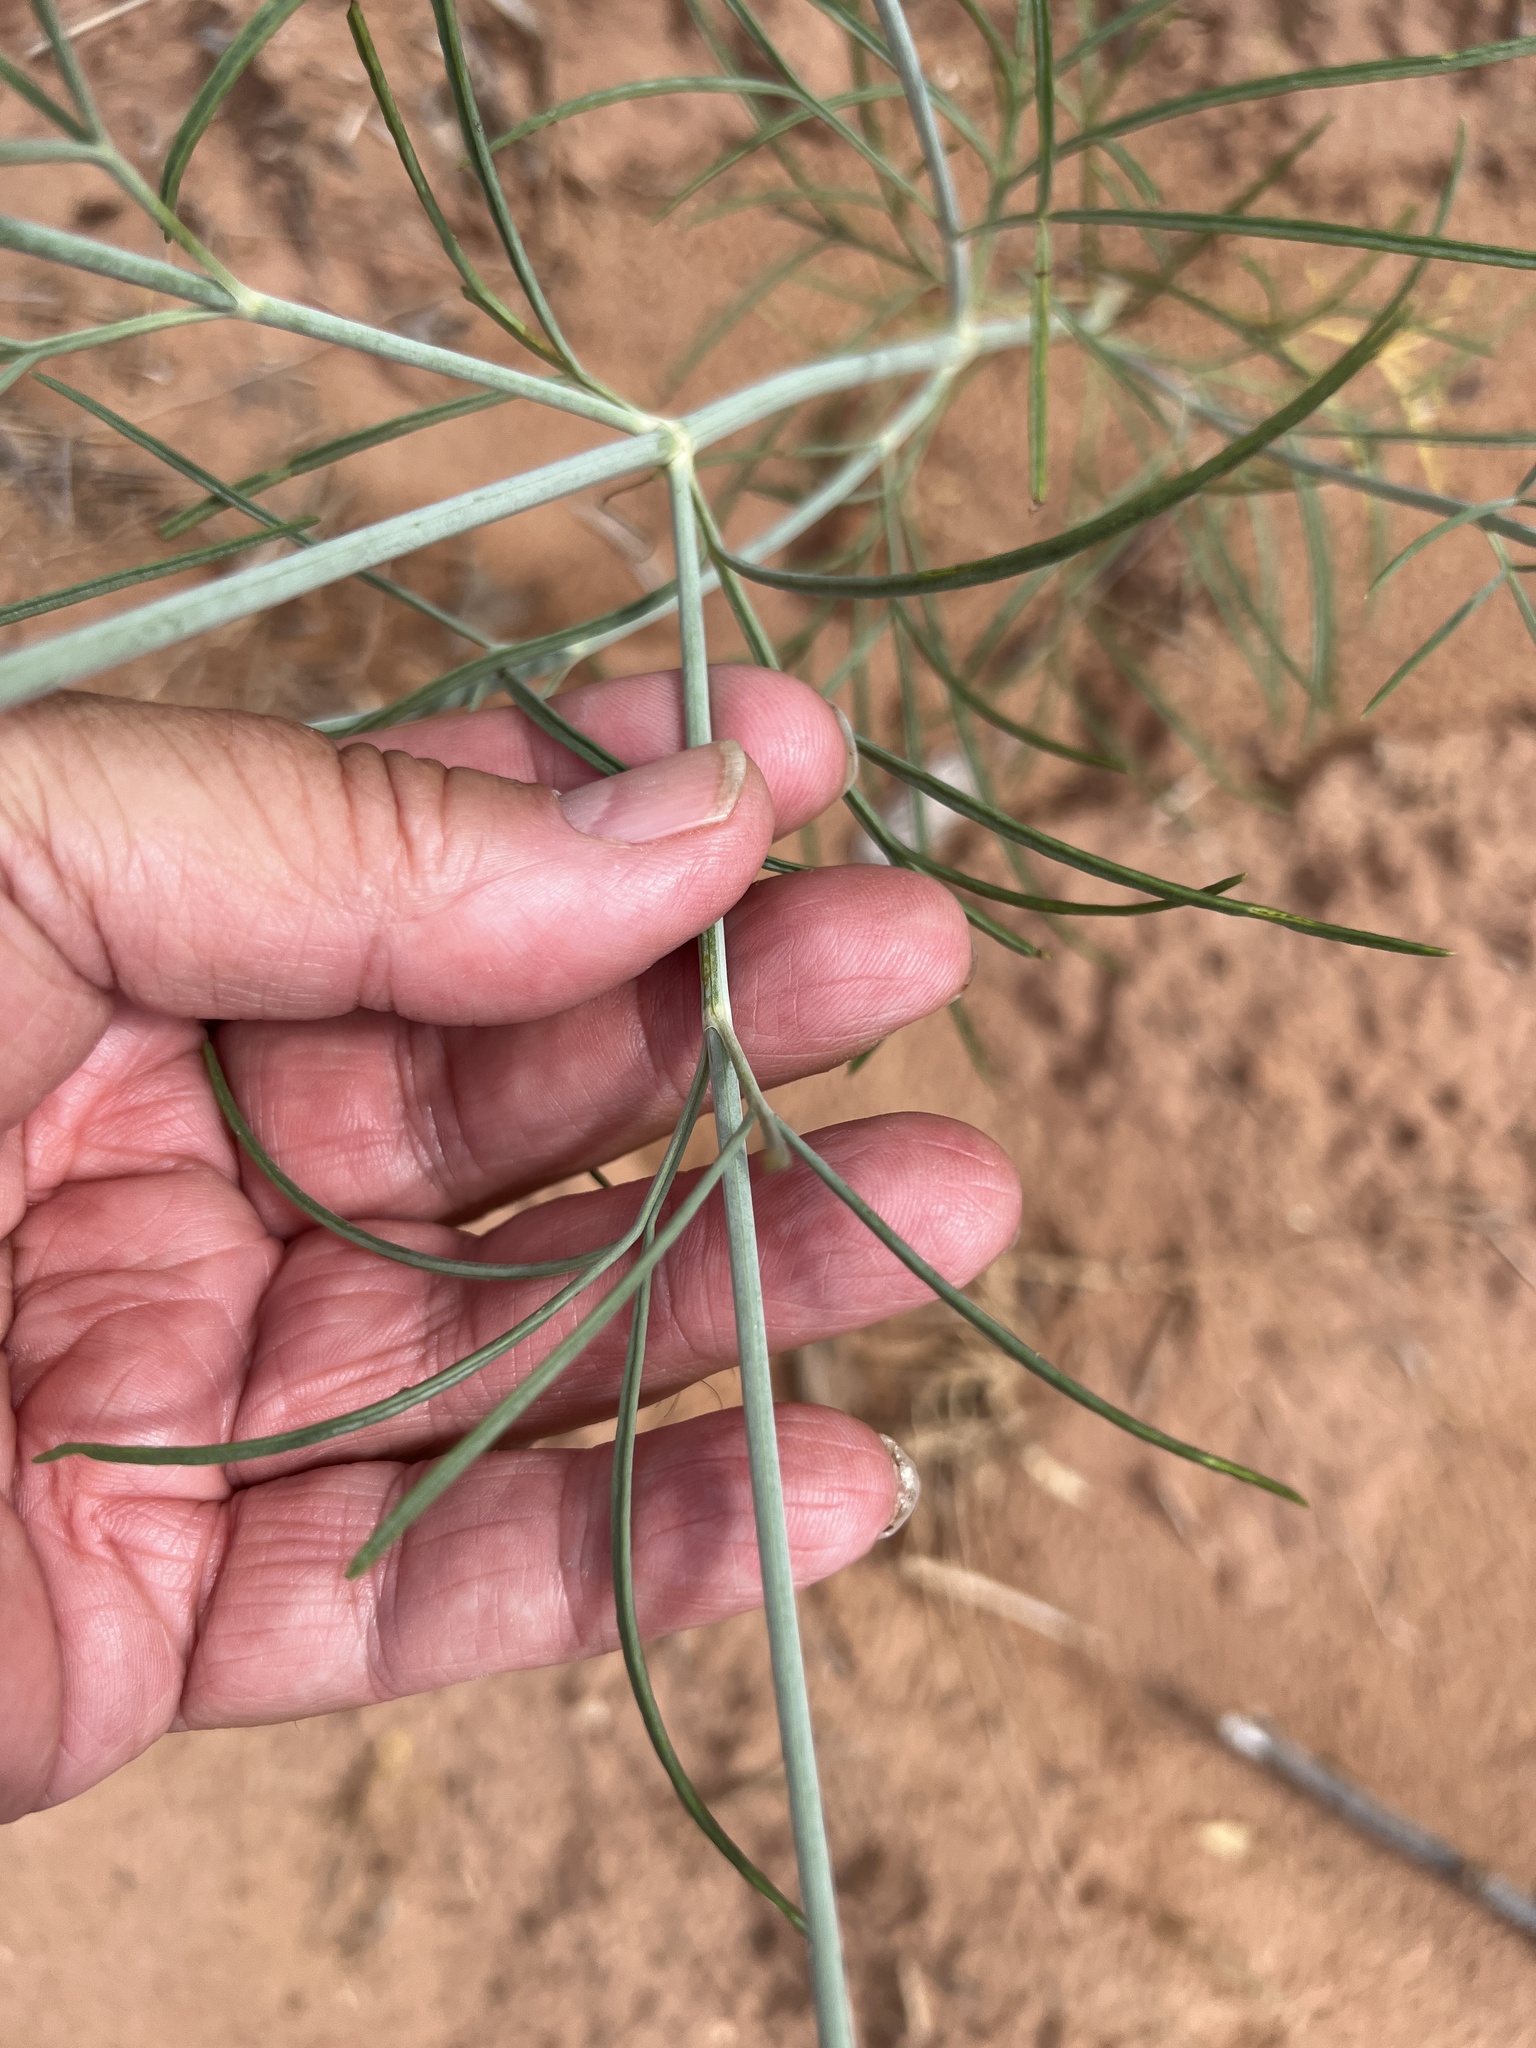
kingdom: Plantae
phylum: Tracheophyta
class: Magnoliopsida
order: Asterales
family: Asteraceae
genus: Thelesperma
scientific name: Thelesperma megapotamicum
